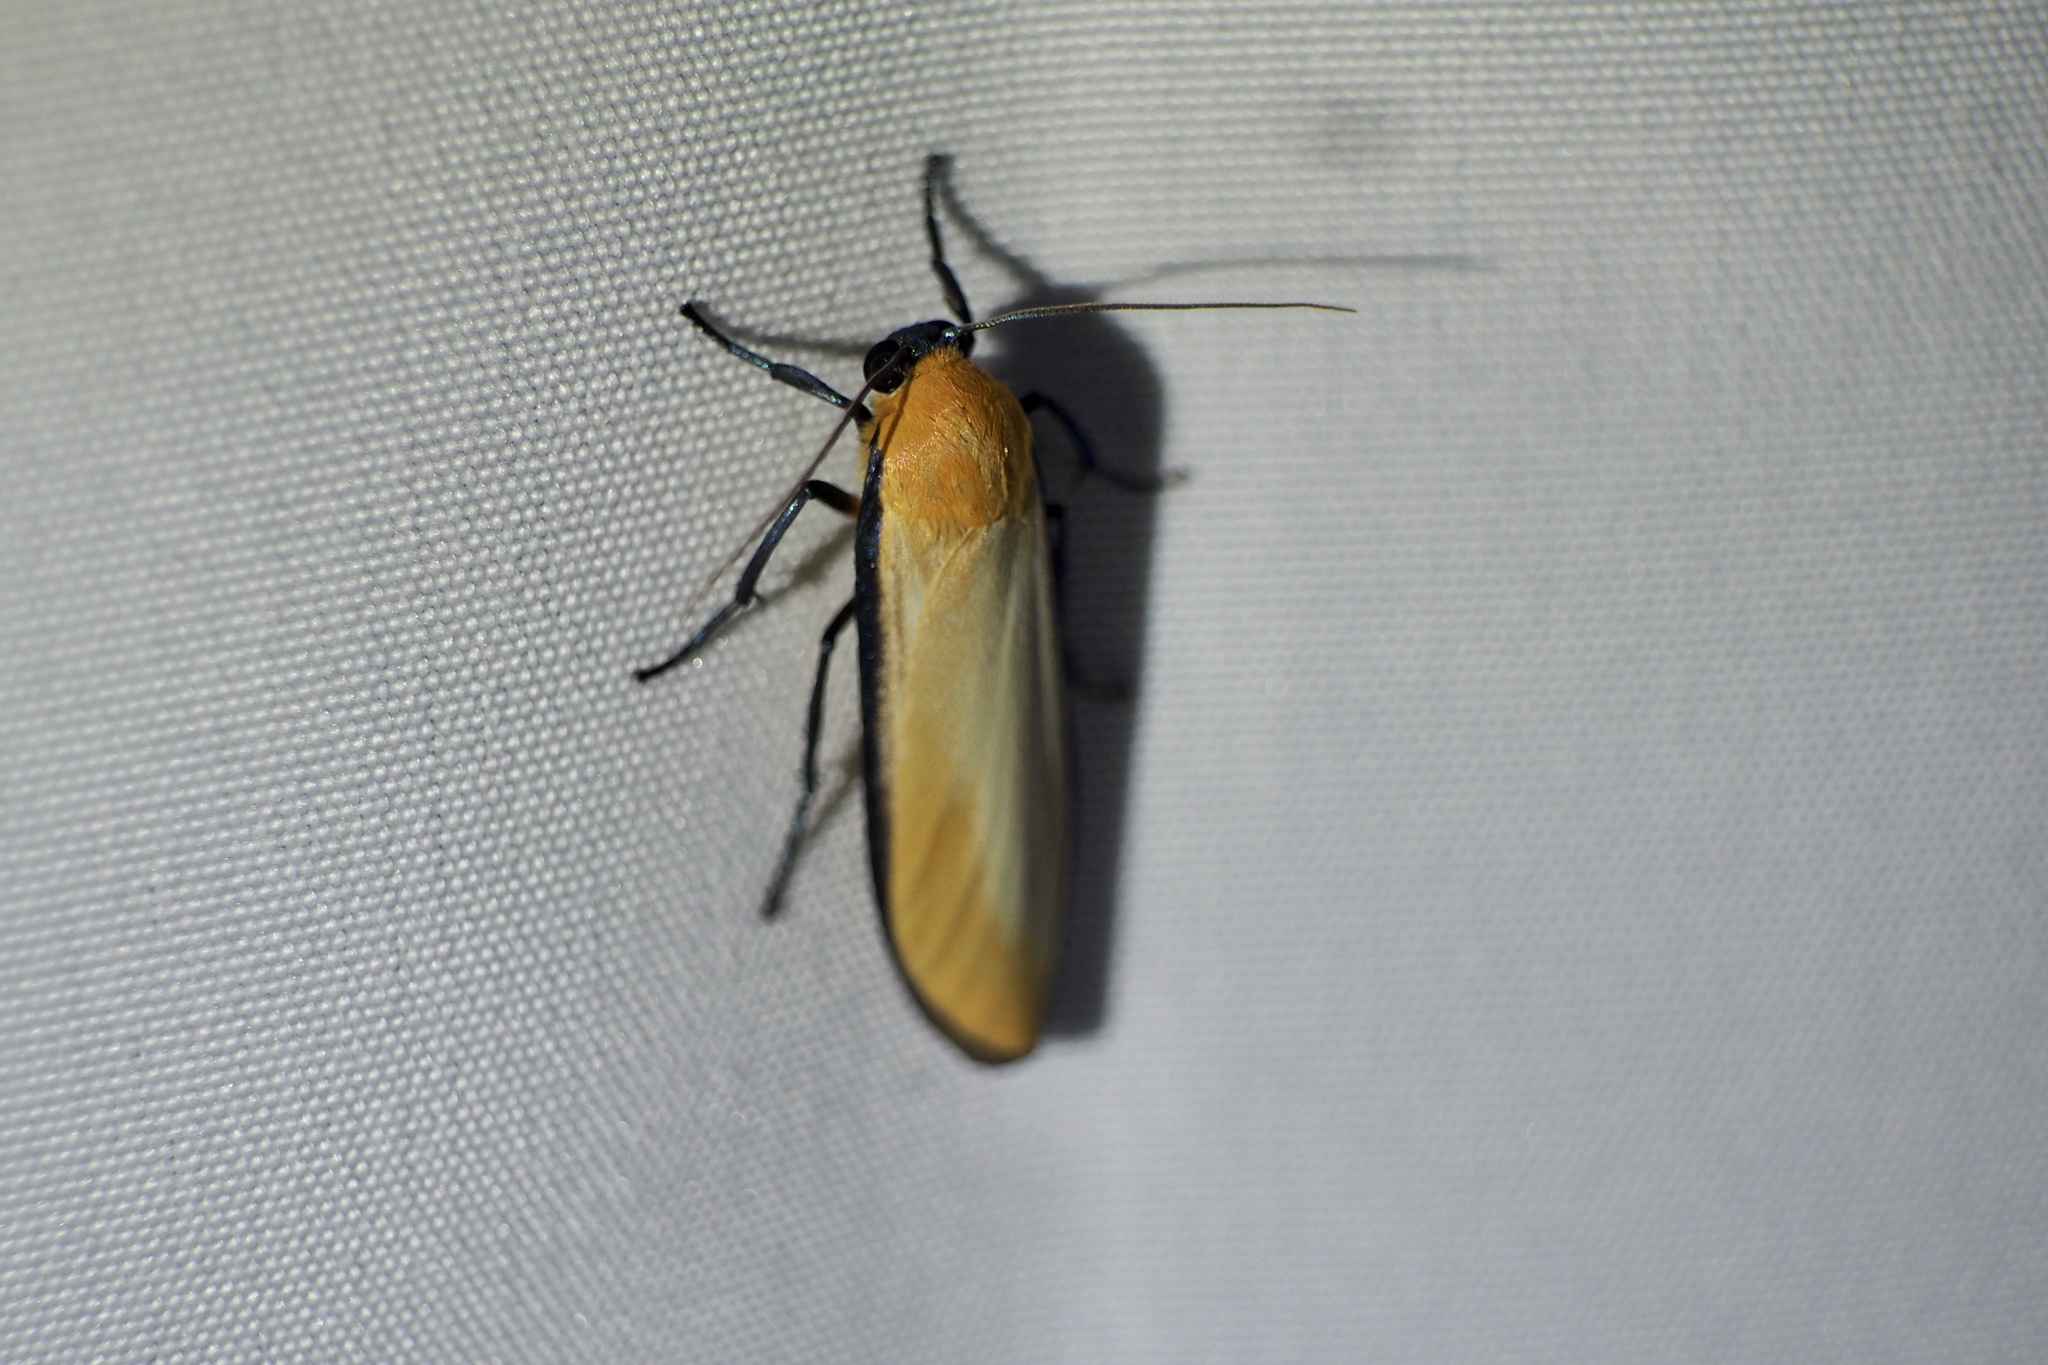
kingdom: Animalia
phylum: Arthropoda
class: Insecta
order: Lepidoptera
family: Erebidae
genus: Conilepia
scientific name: Conilepia nigricosta
